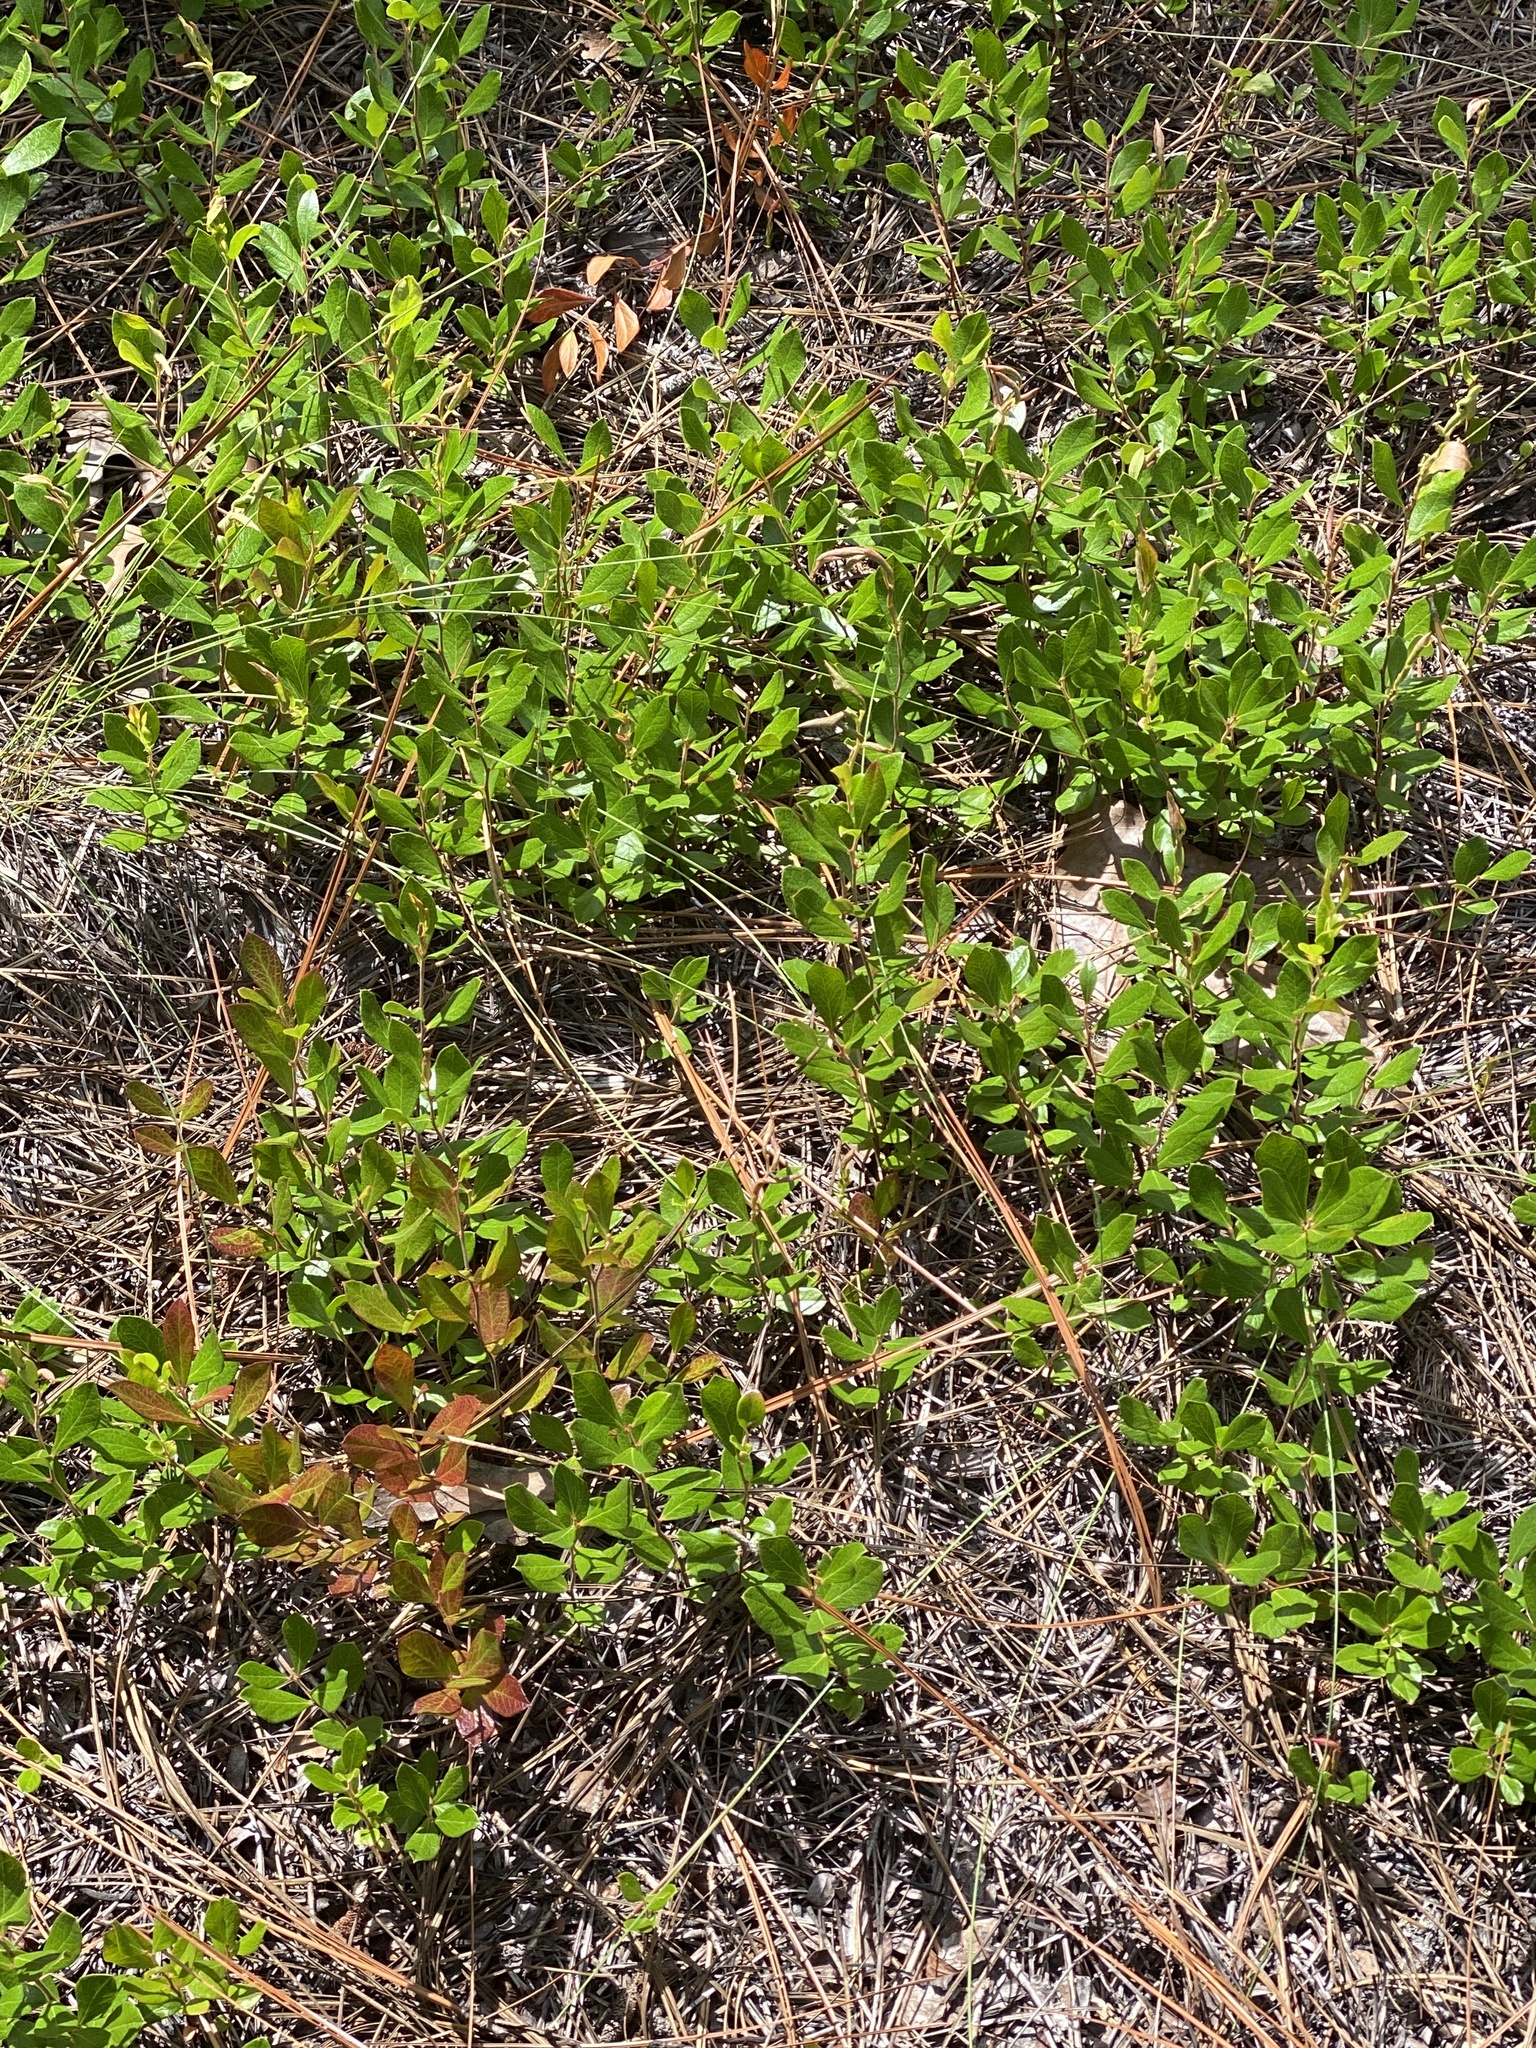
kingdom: Plantae
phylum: Tracheophyta
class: Magnoliopsida
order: Ericales
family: Ericaceae
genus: Gaylussacia
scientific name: Gaylussacia dumosa
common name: Dwarf huckleberry
